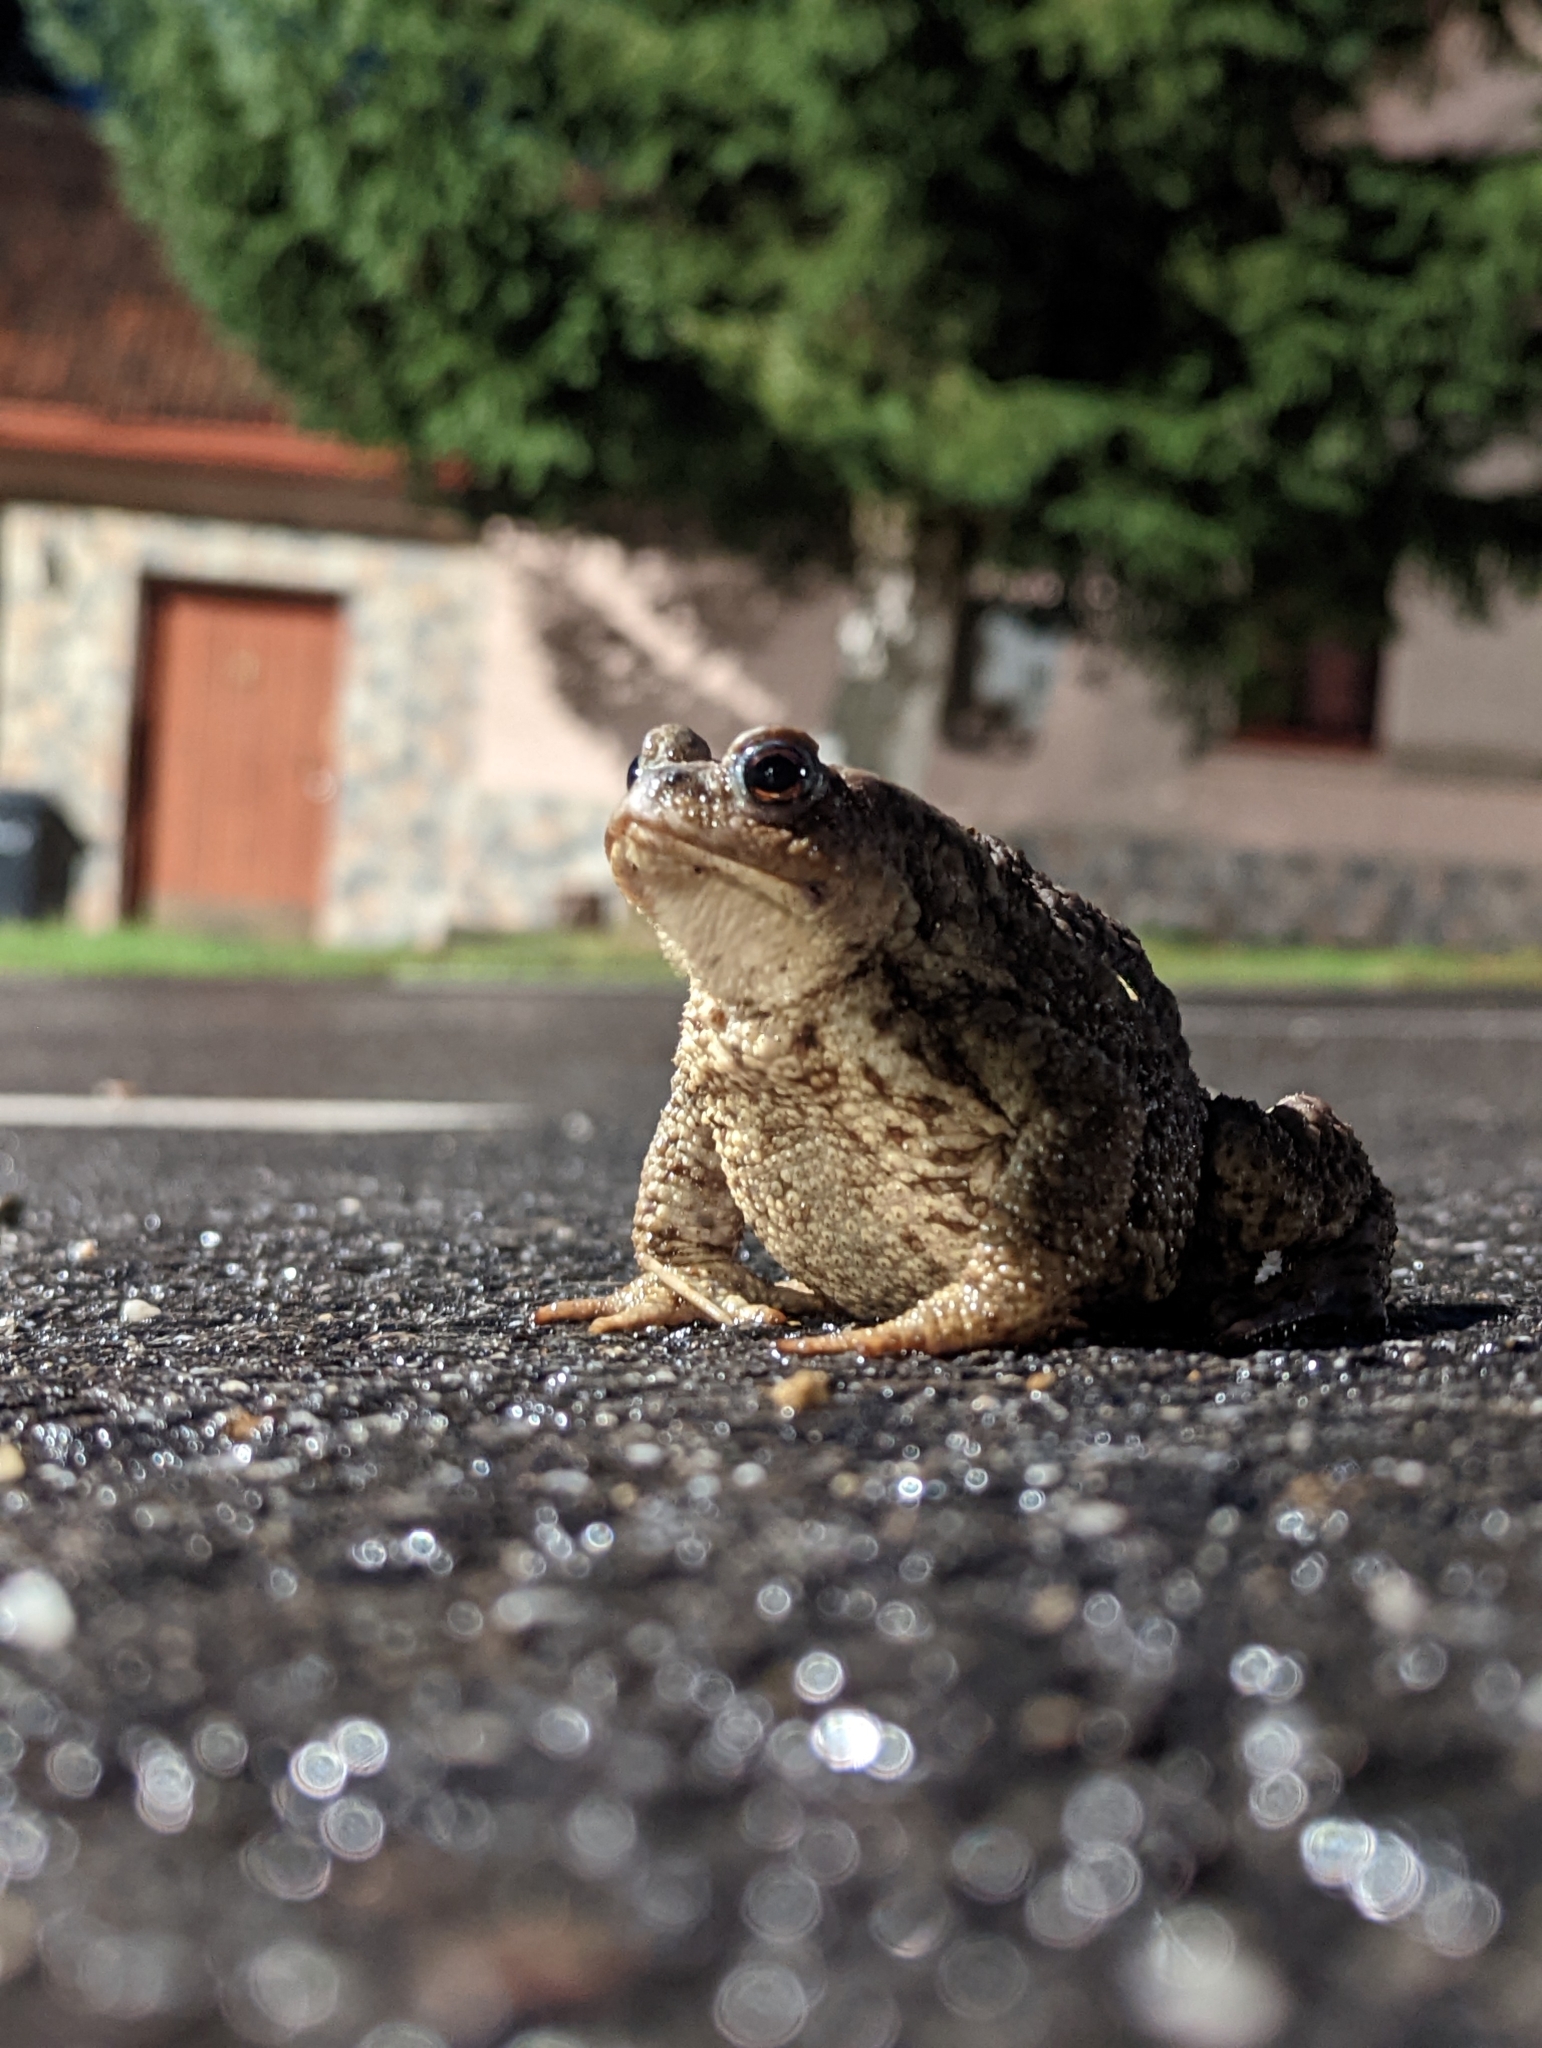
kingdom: Animalia
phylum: Chordata
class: Amphibia
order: Anura
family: Bufonidae
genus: Bufo
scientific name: Bufo bufo
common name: Common toad
